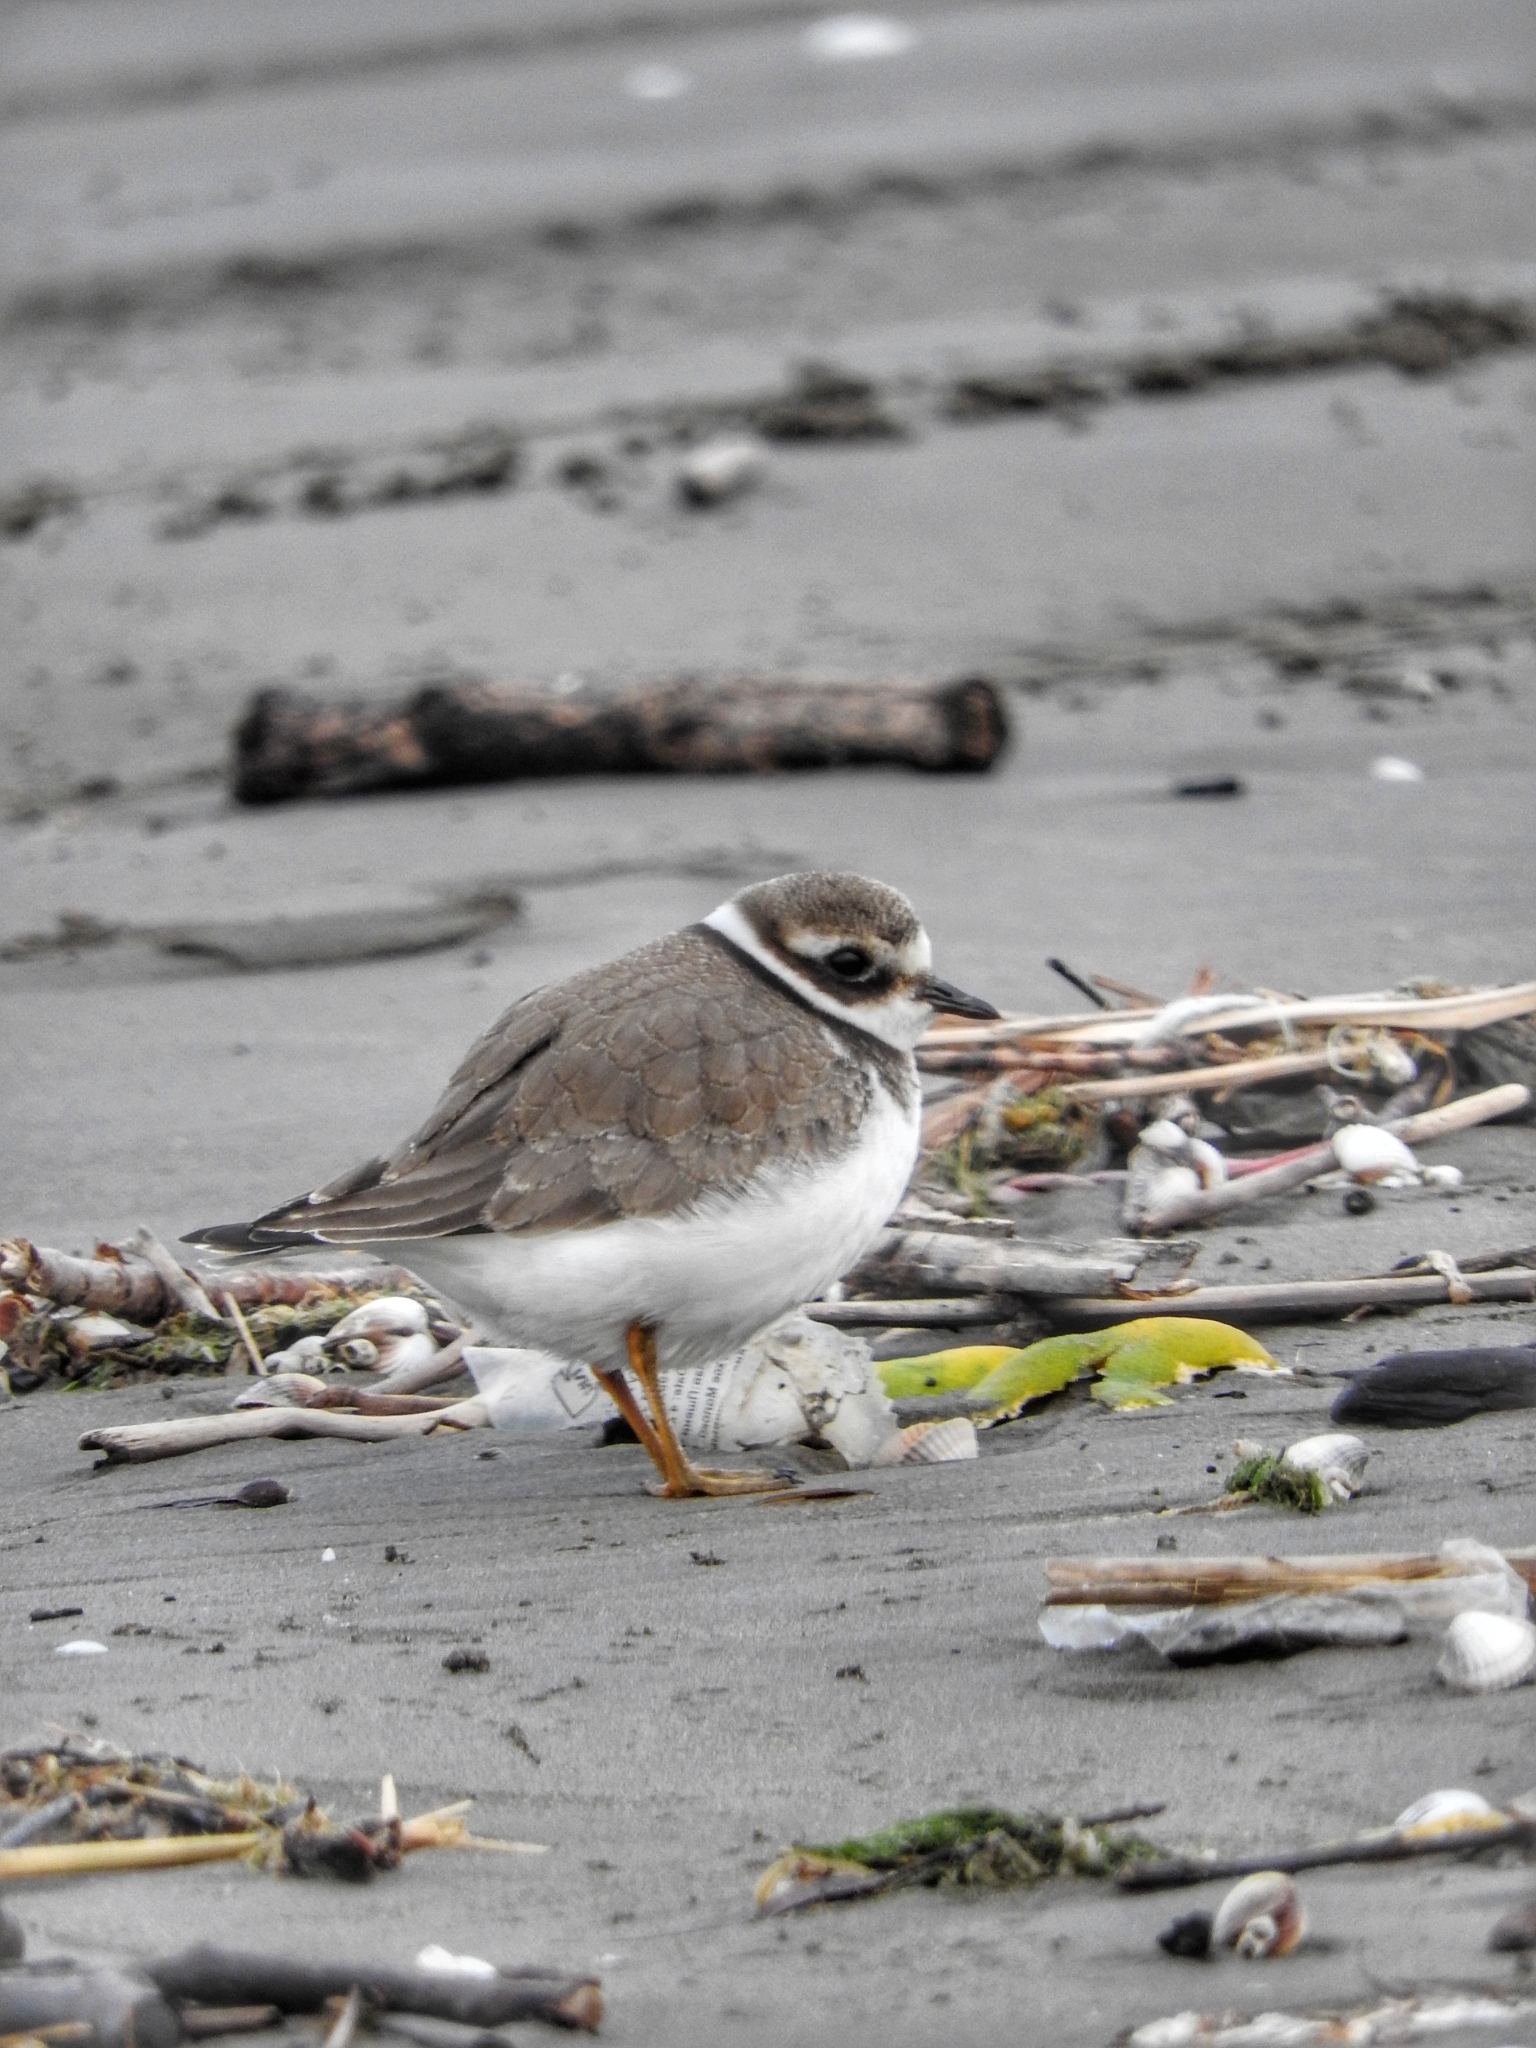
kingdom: Animalia
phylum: Chordata
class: Aves
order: Charadriiformes
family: Charadriidae
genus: Charadrius
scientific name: Charadrius hiaticula
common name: Common ringed plover
